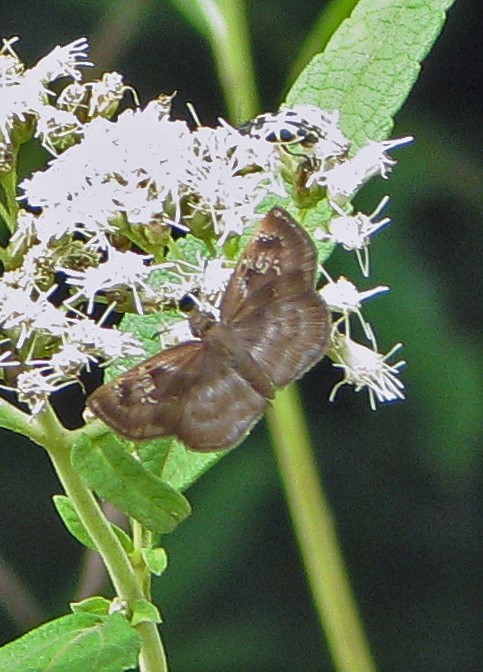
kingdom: Animalia
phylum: Arthropoda
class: Insecta
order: Lepidoptera
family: Hesperiidae
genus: Quadrus
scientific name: Quadrus ulucida
